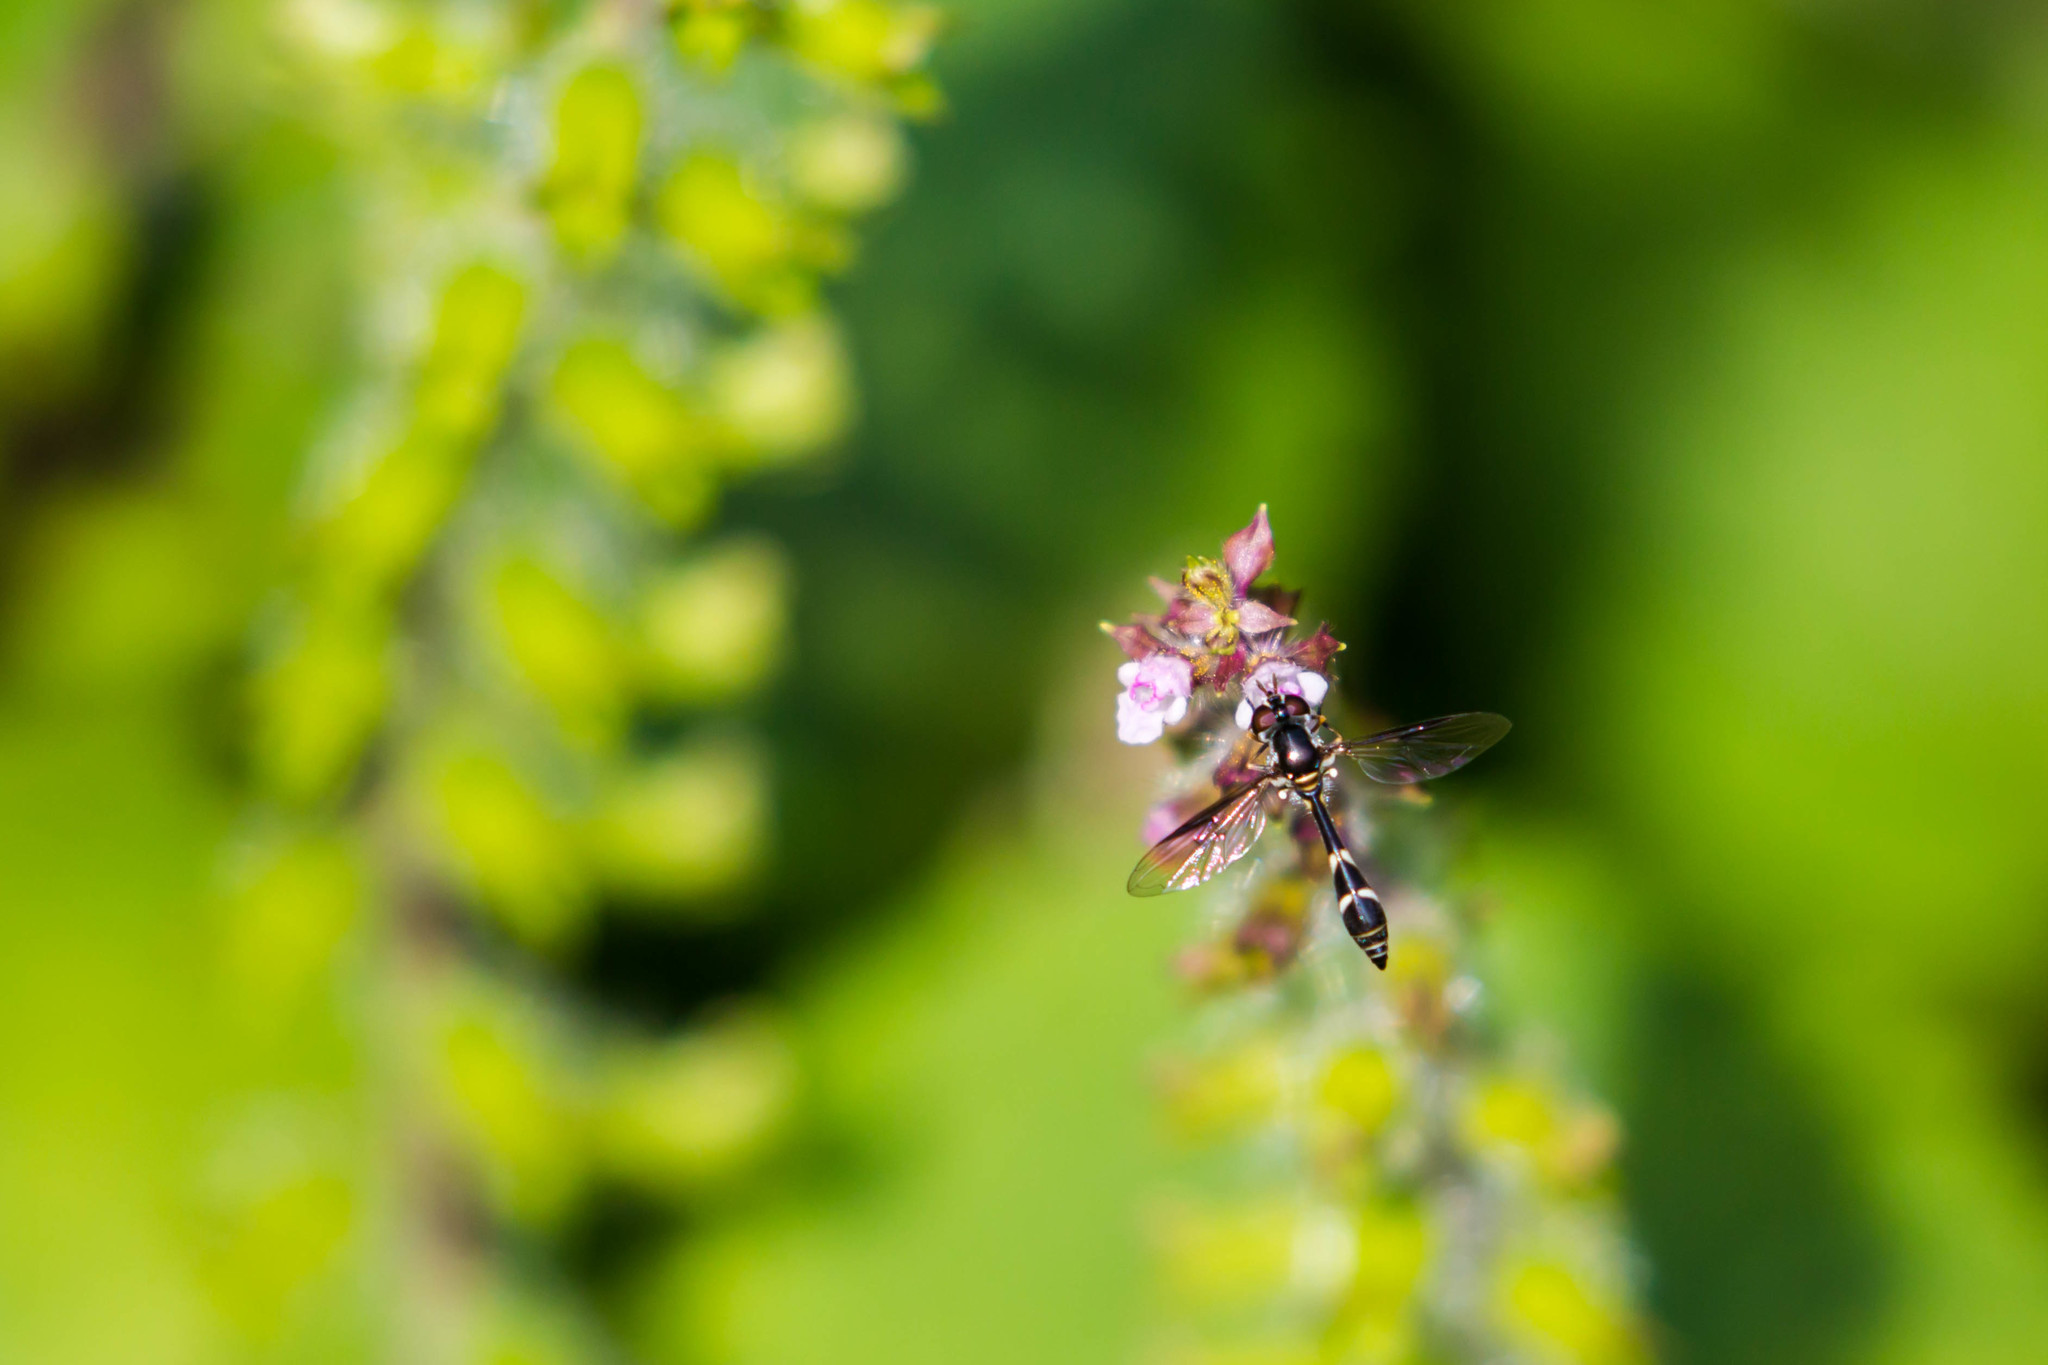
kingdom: Animalia
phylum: Arthropoda
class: Insecta
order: Diptera
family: Syrphidae
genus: Dioprosopa
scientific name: Dioprosopa clavatus
